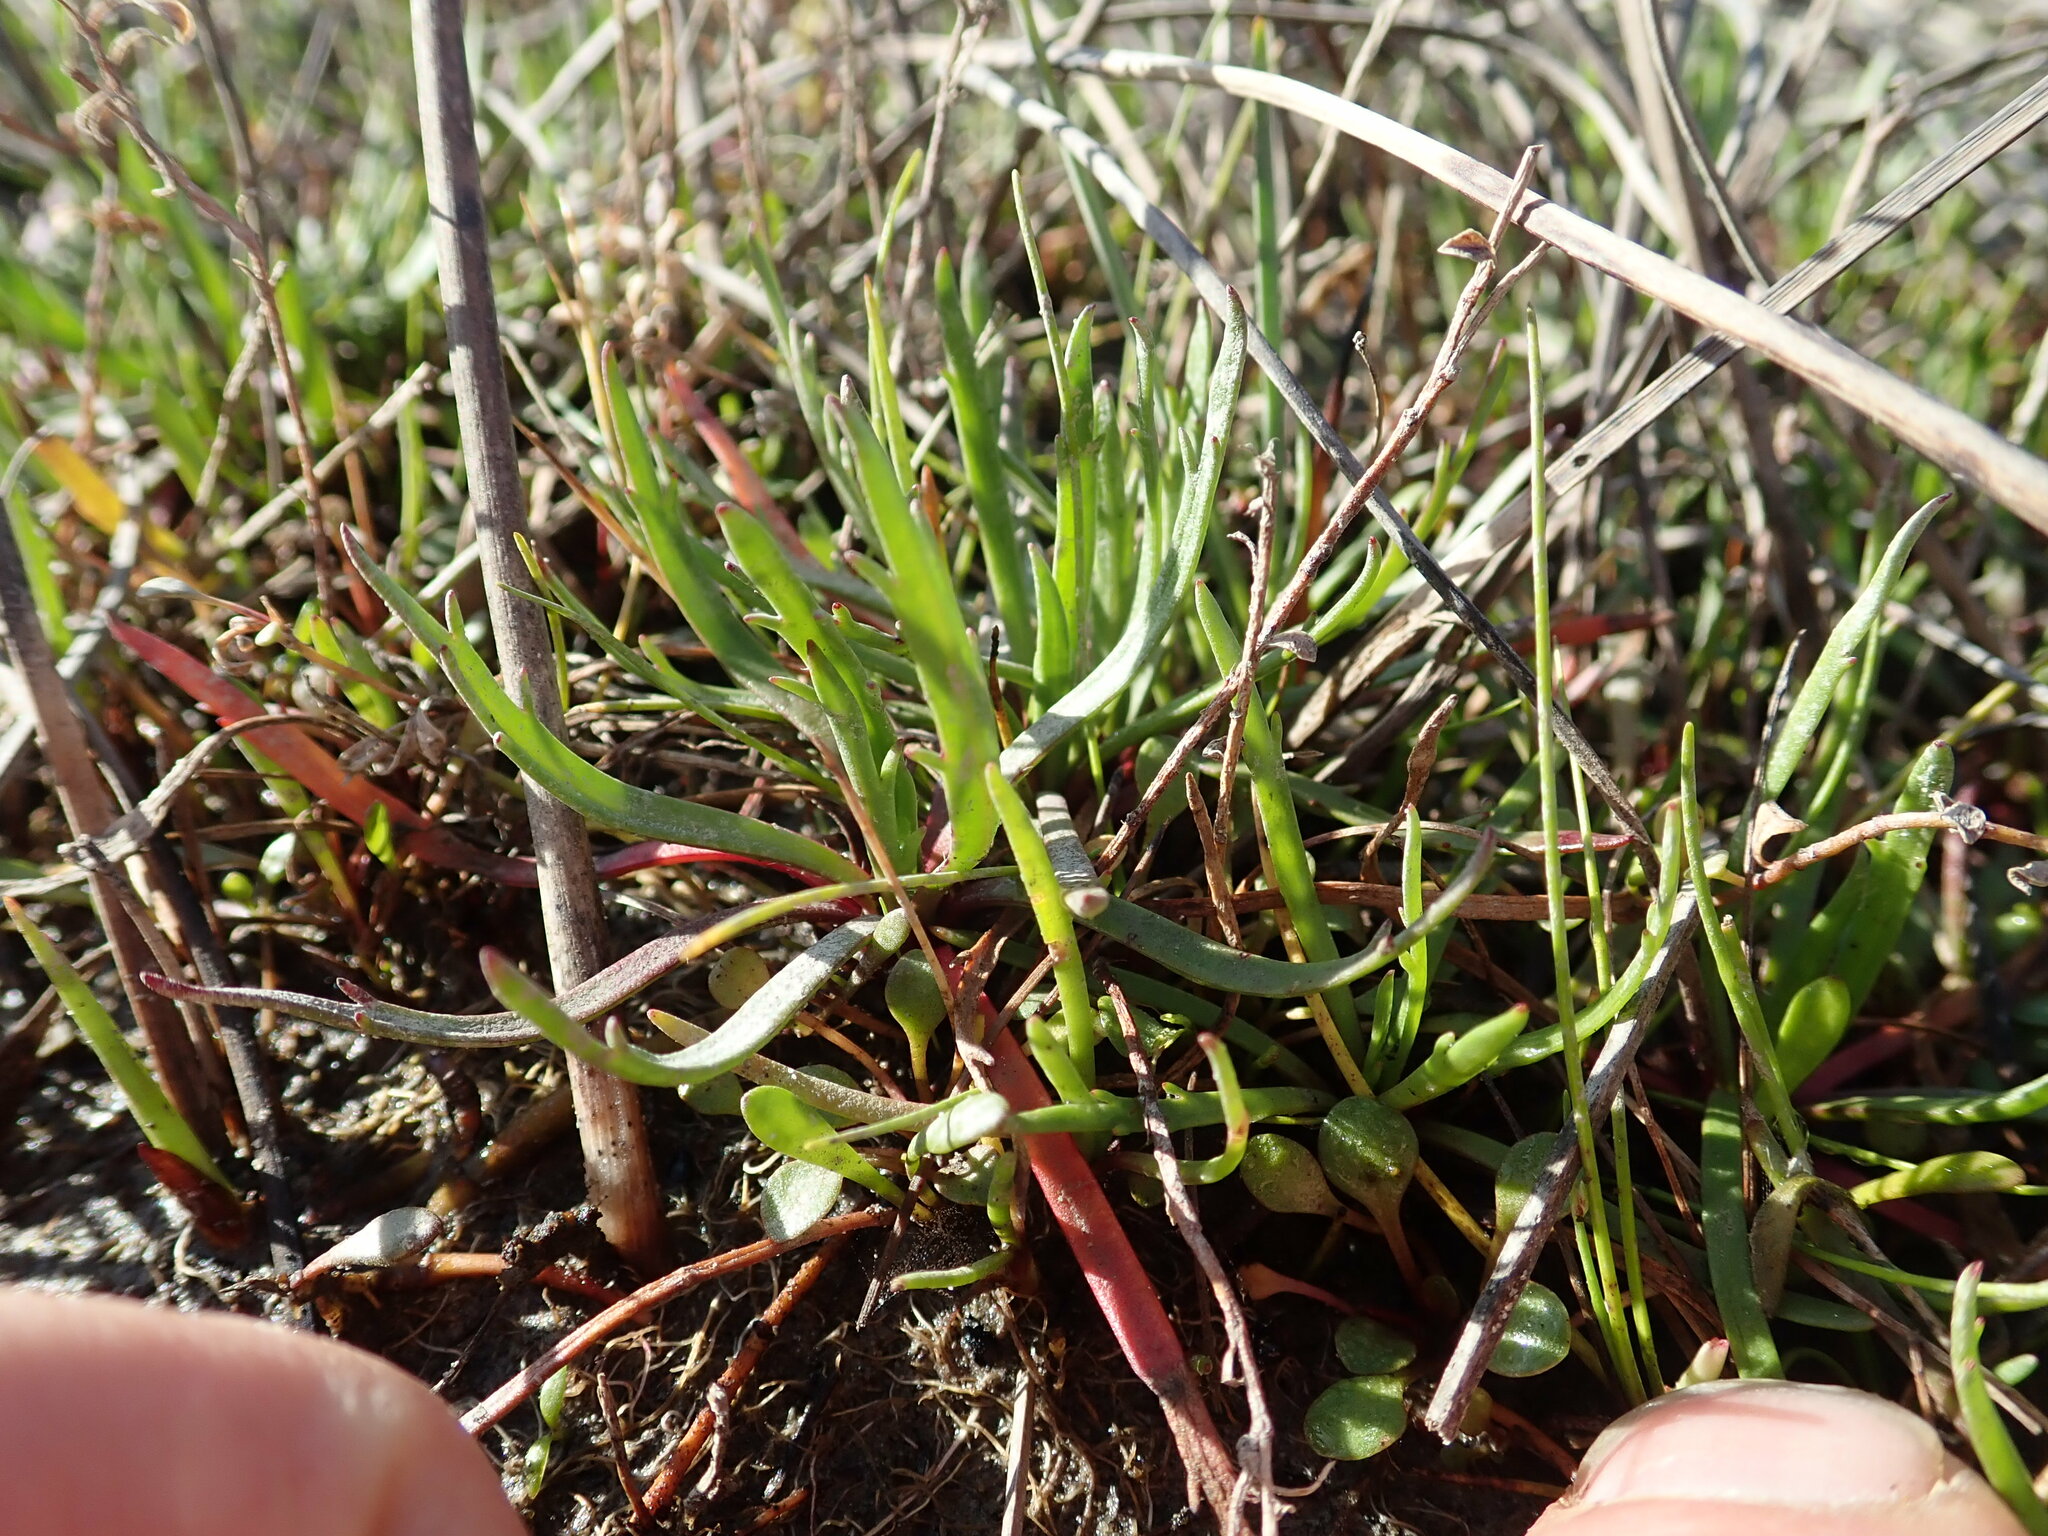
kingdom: Plantae
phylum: Tracheophyta
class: Magnoliopsida
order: Lamiales
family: Plantaginaceae
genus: Plantago
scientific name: Plantago coronopus
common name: Buck's-horn plantain
